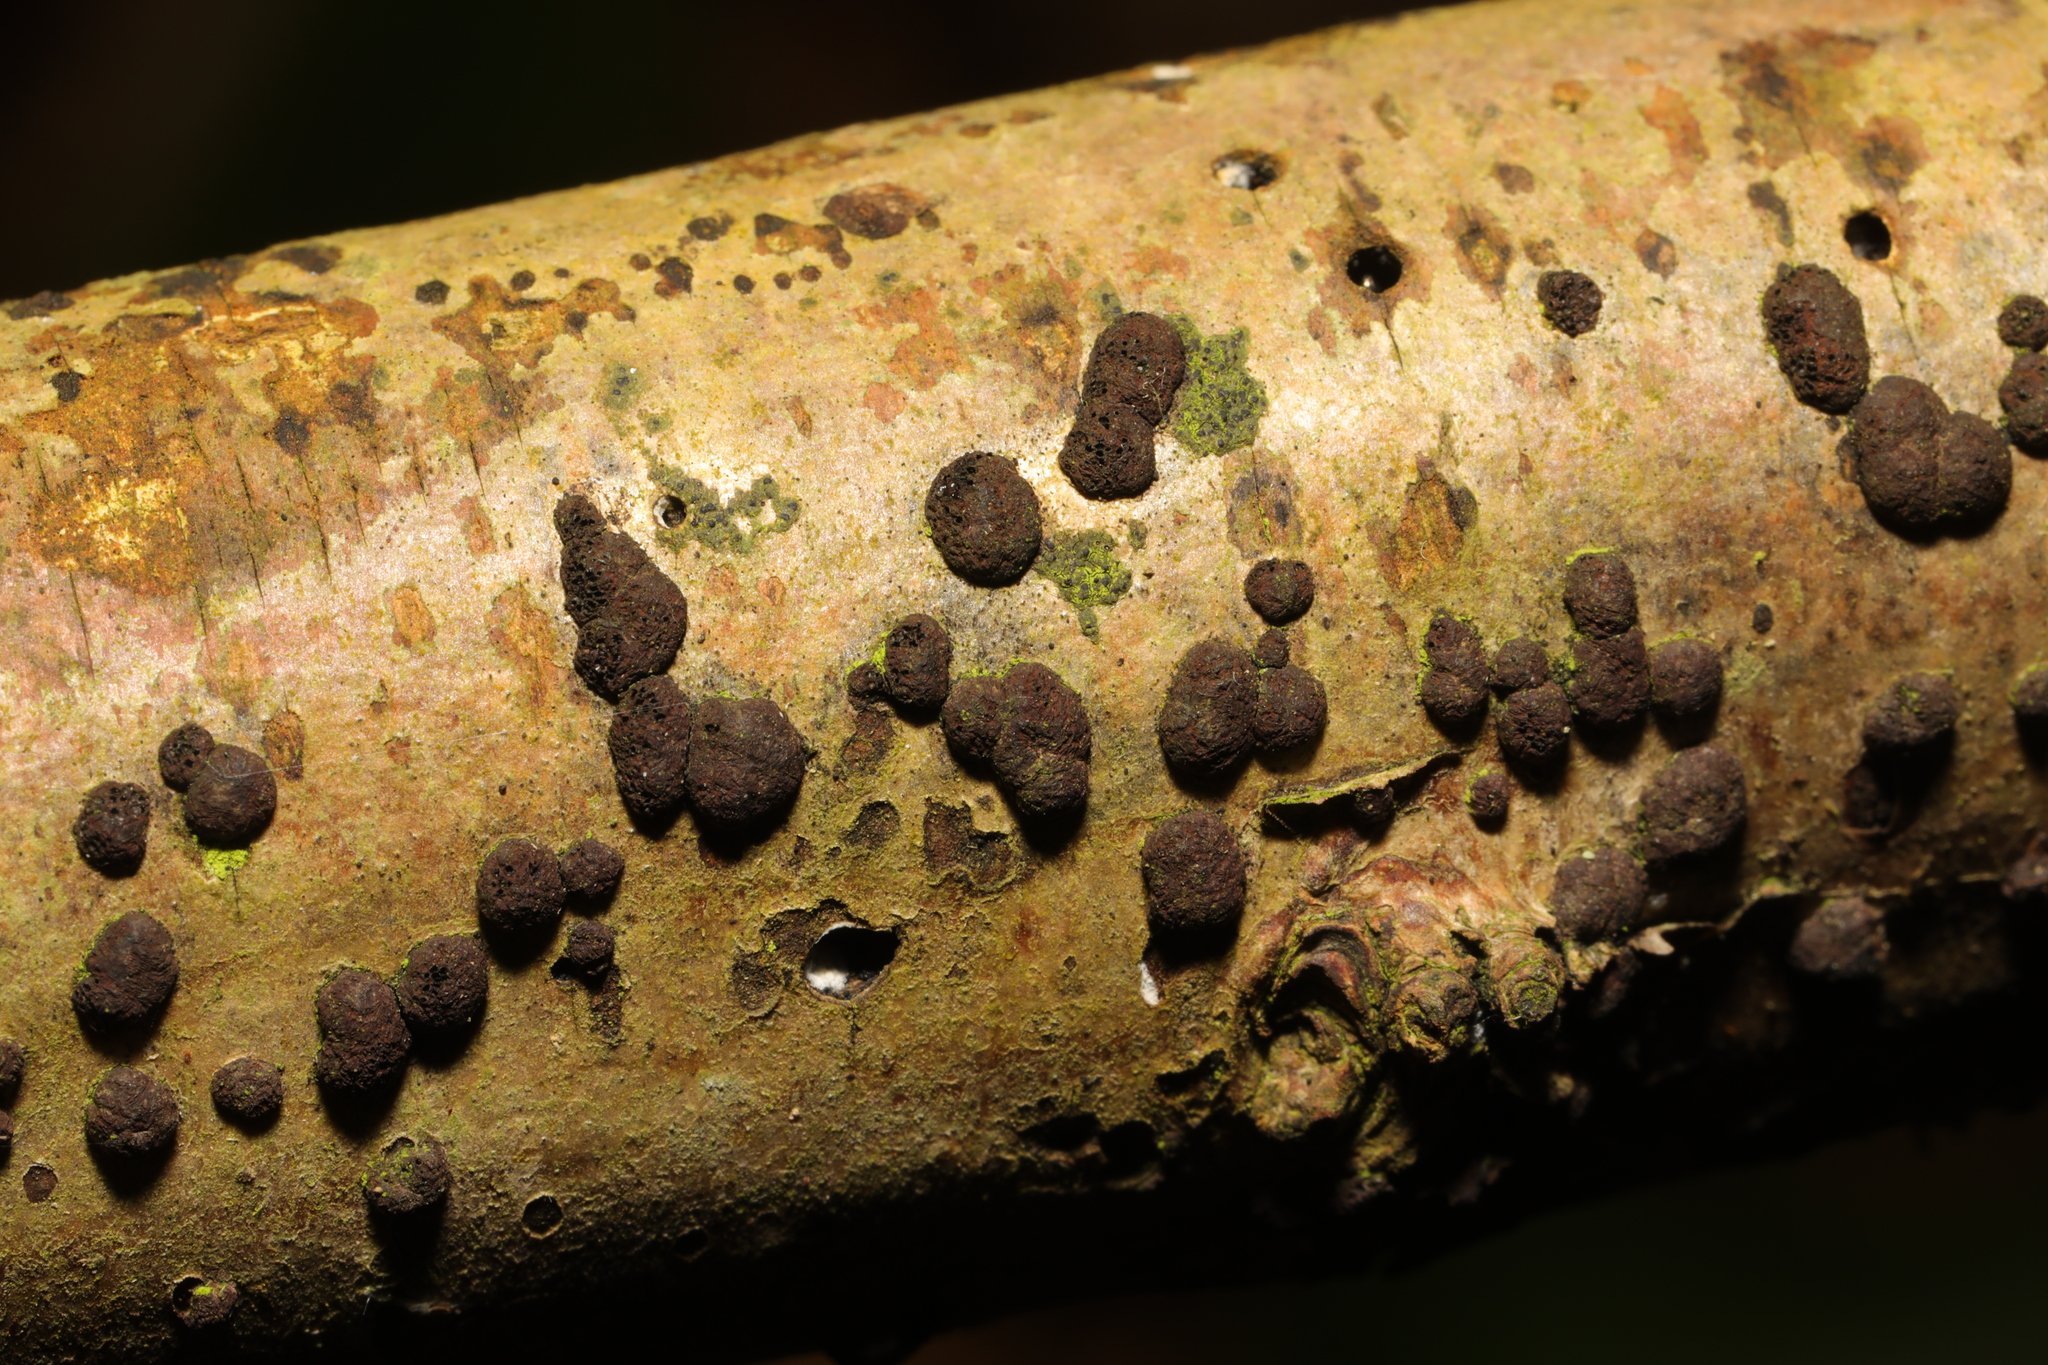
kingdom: Fungi
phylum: Ascomycota
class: Sordariomycetes
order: Xylariales
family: Hypoxylaceae
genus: Hypoxylon
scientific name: Hypoxylon fuscum
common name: Hazel woodwart
